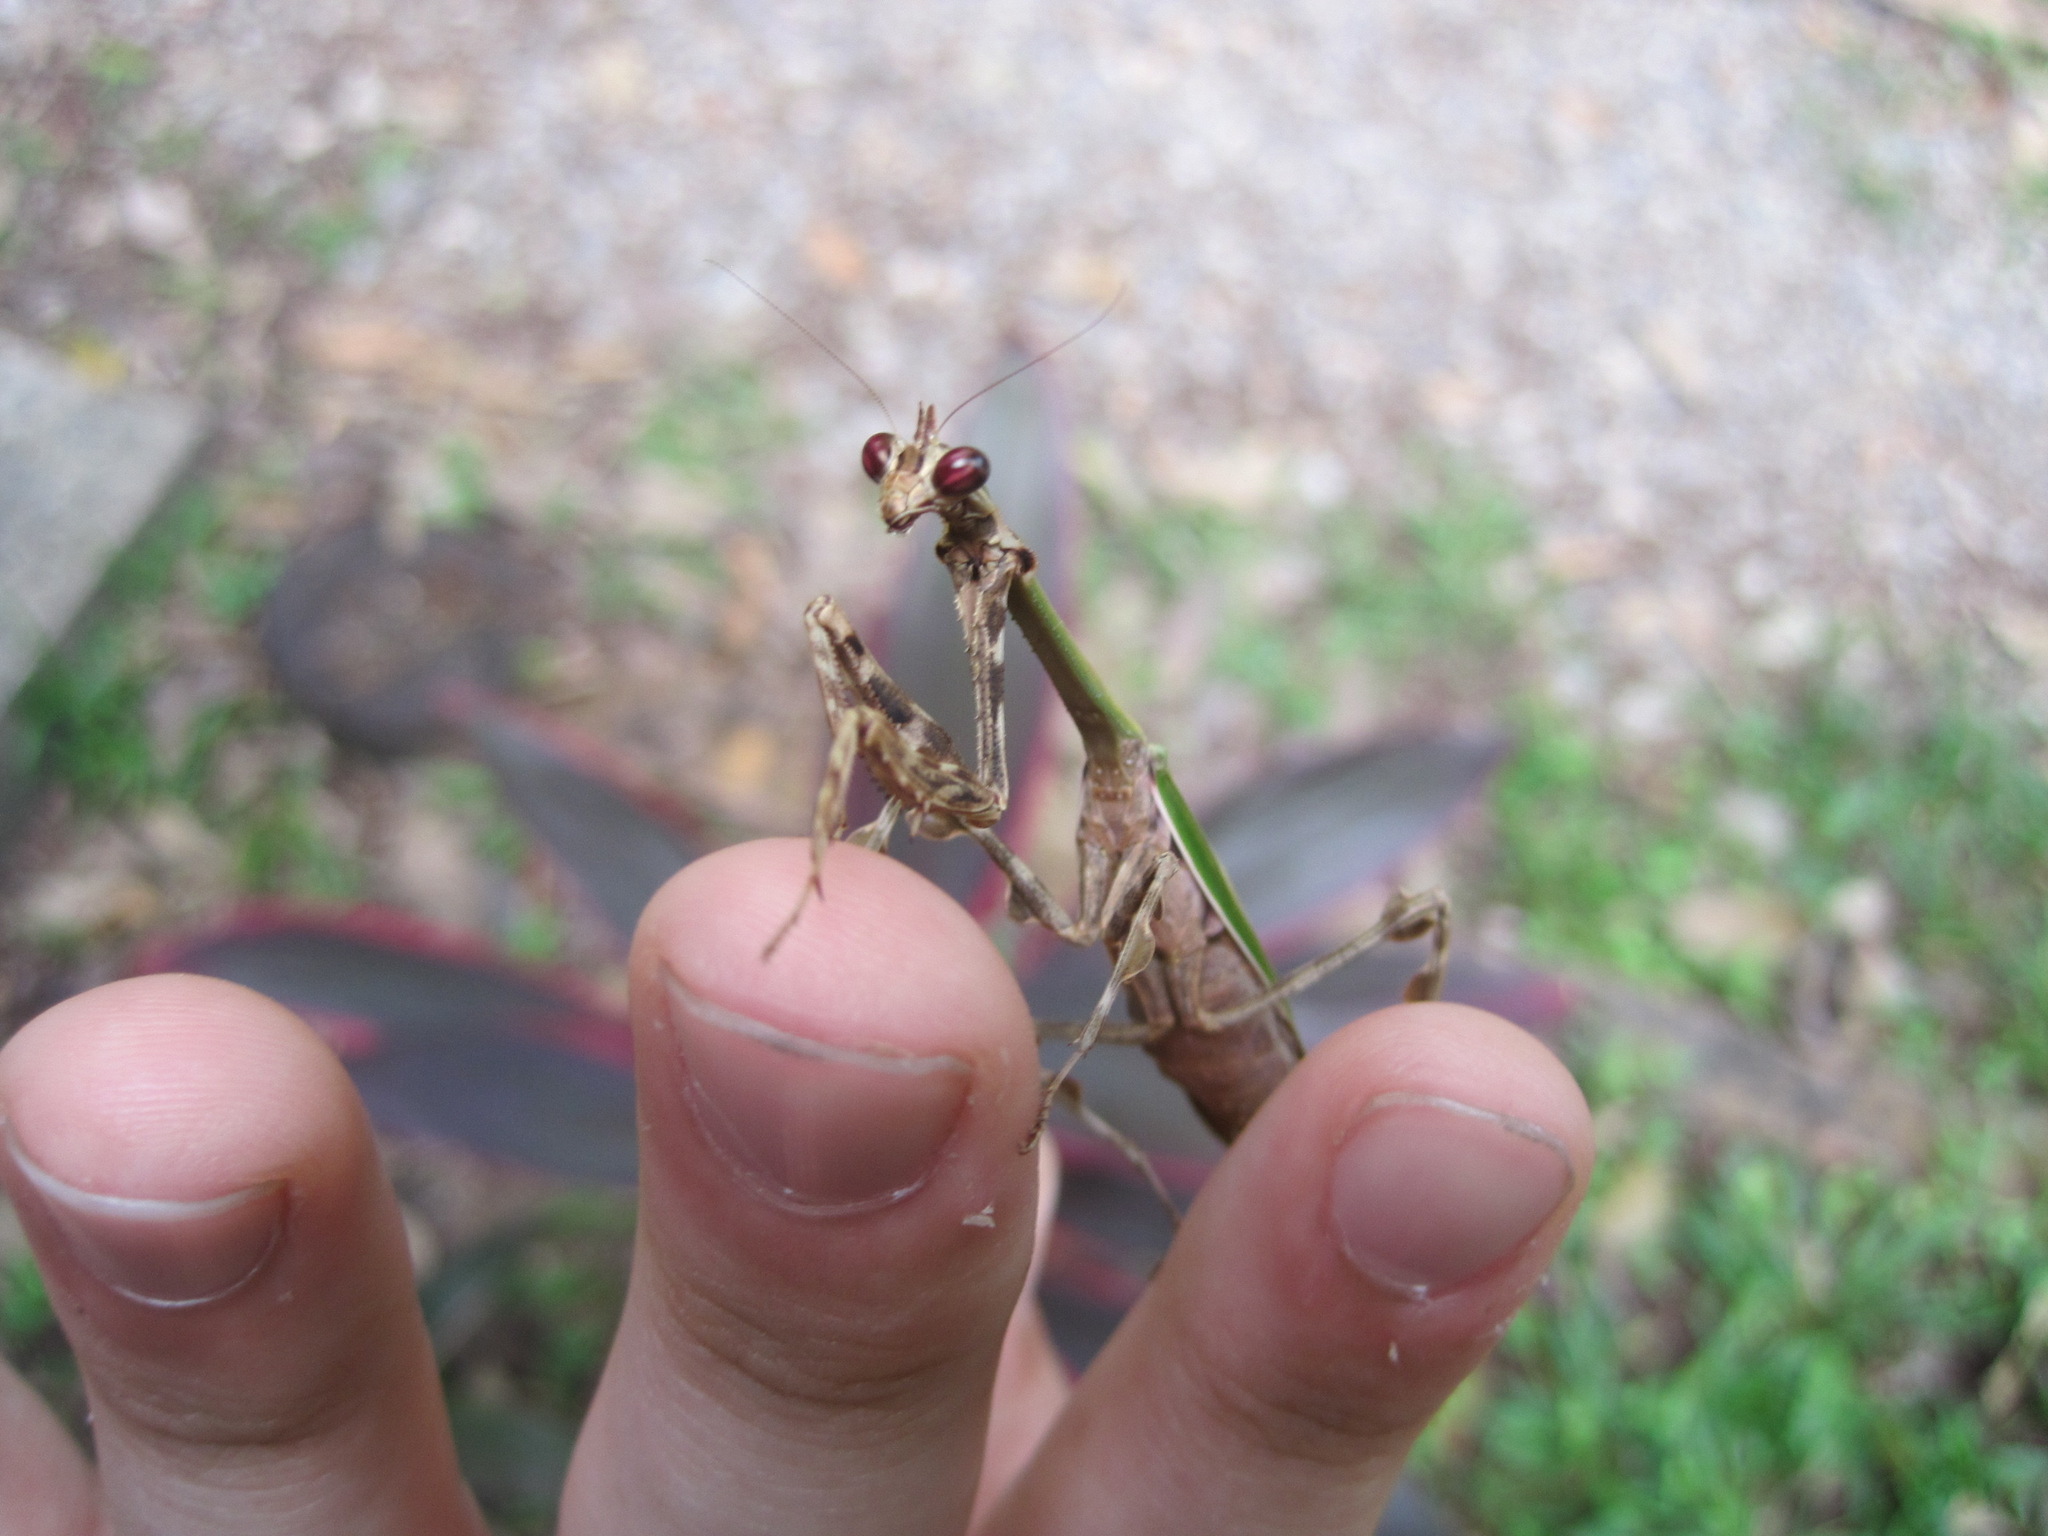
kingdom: Animalia
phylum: Arthropoda
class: Insecta
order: Mantodea
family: Mantidae
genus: Vates
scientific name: Vates pectinicornis
